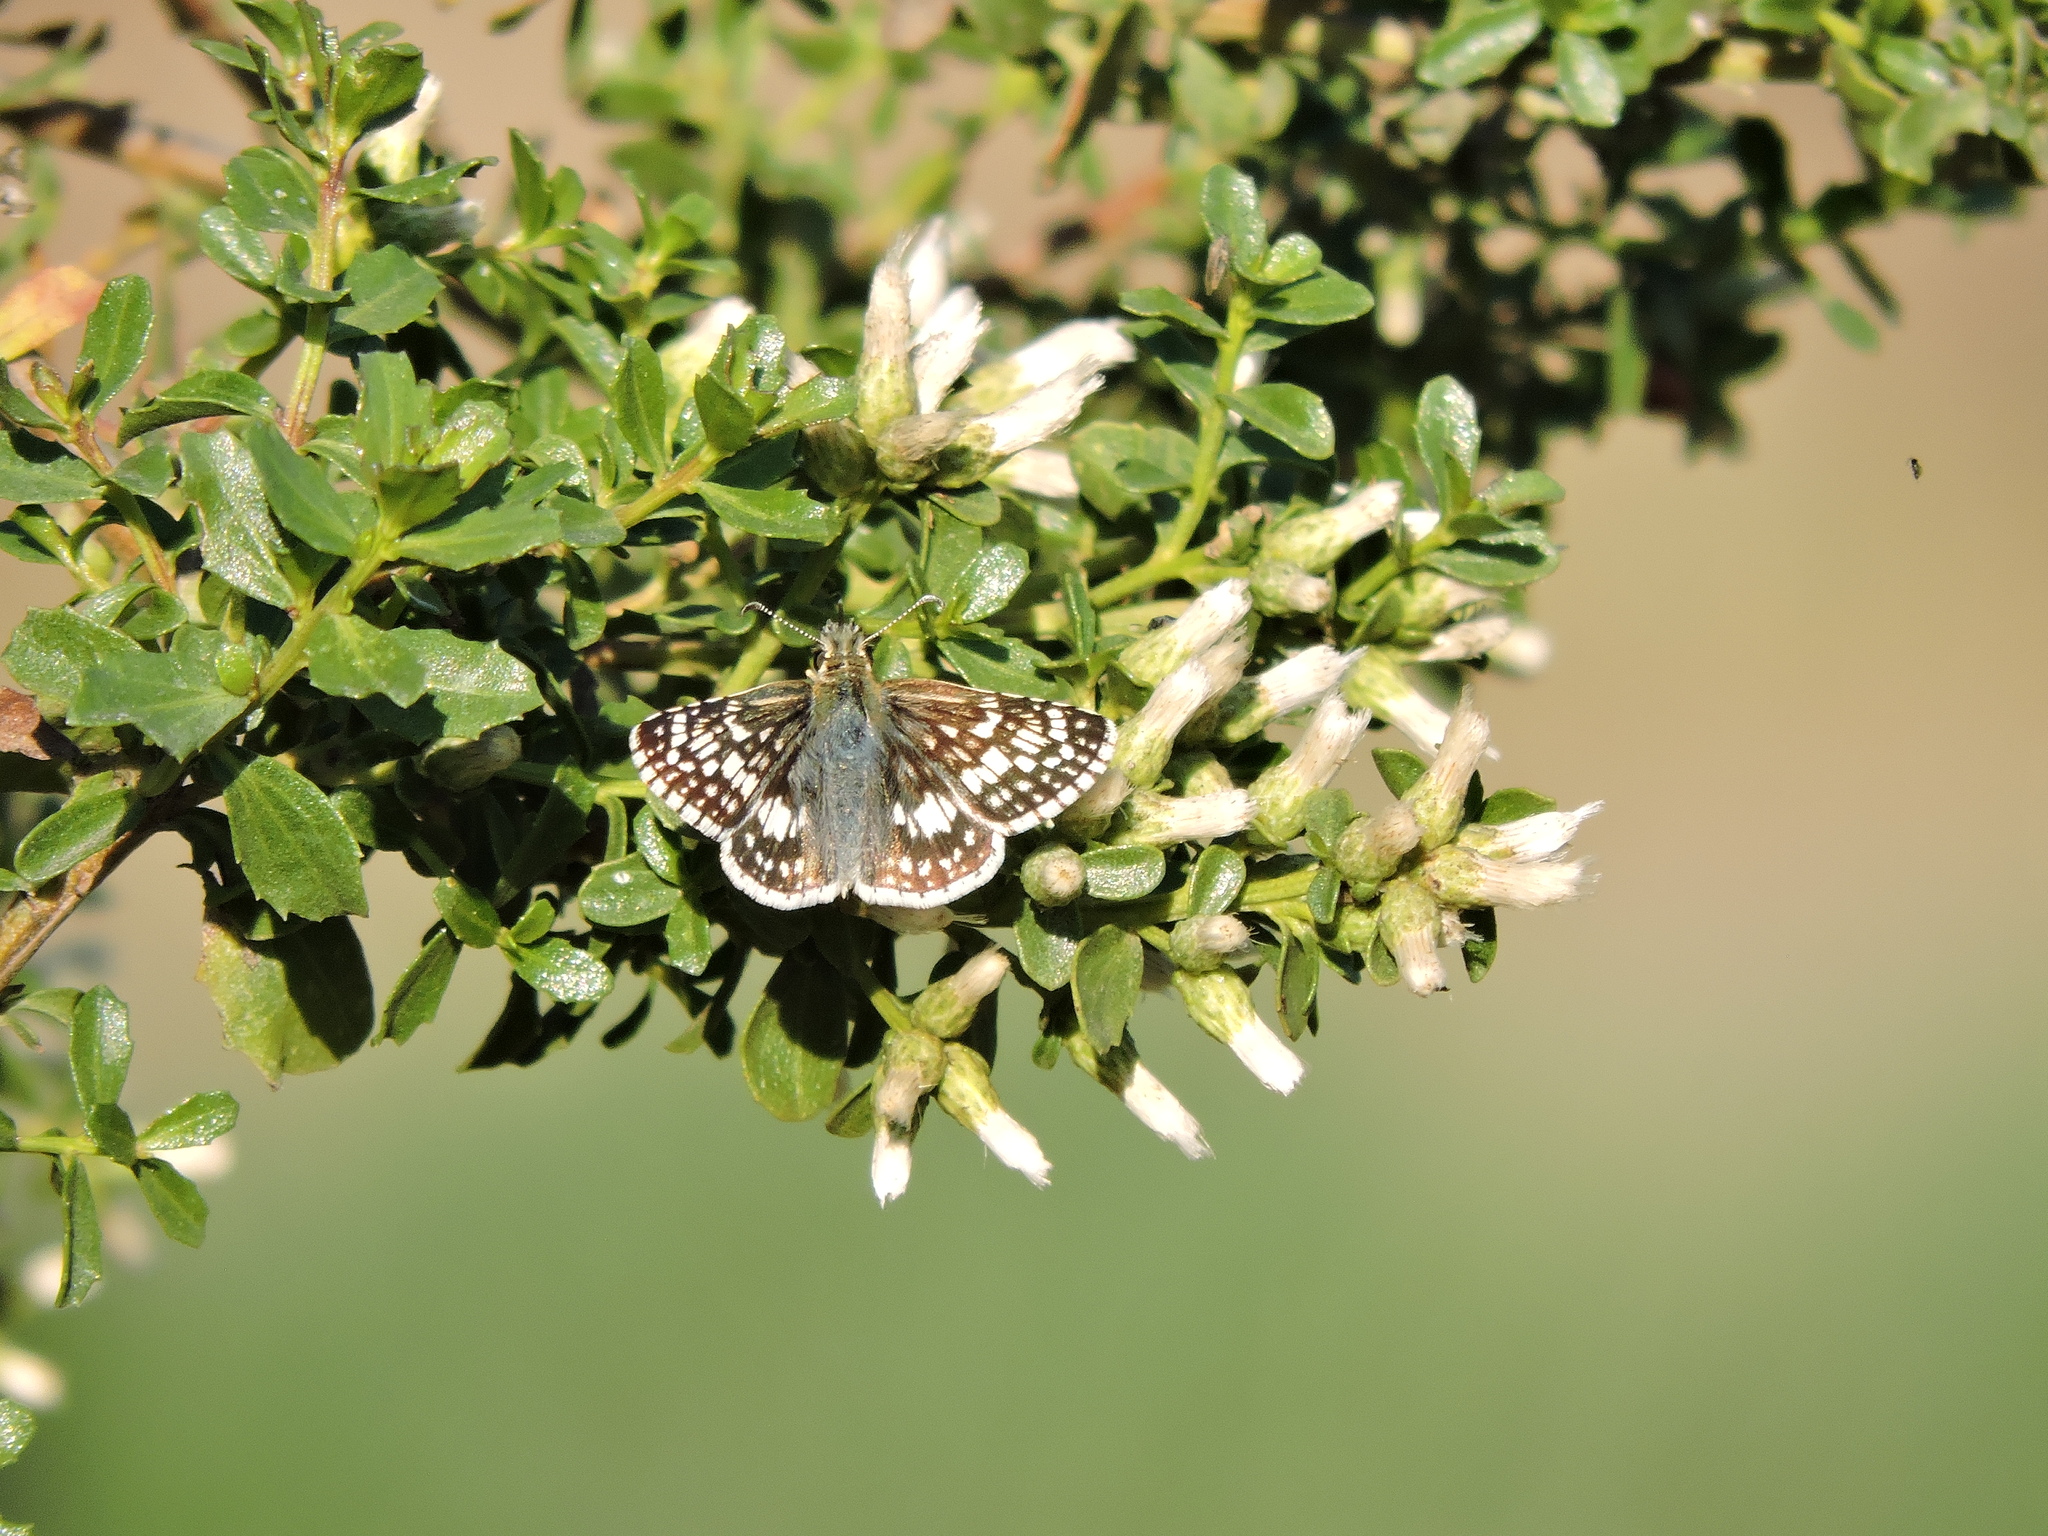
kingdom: Animalia
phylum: Arthropoda
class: Insecta
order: Lepidoptera
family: Hesperiidae
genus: Burnsius
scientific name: Burnsius communis
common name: Common checkered-skipper
